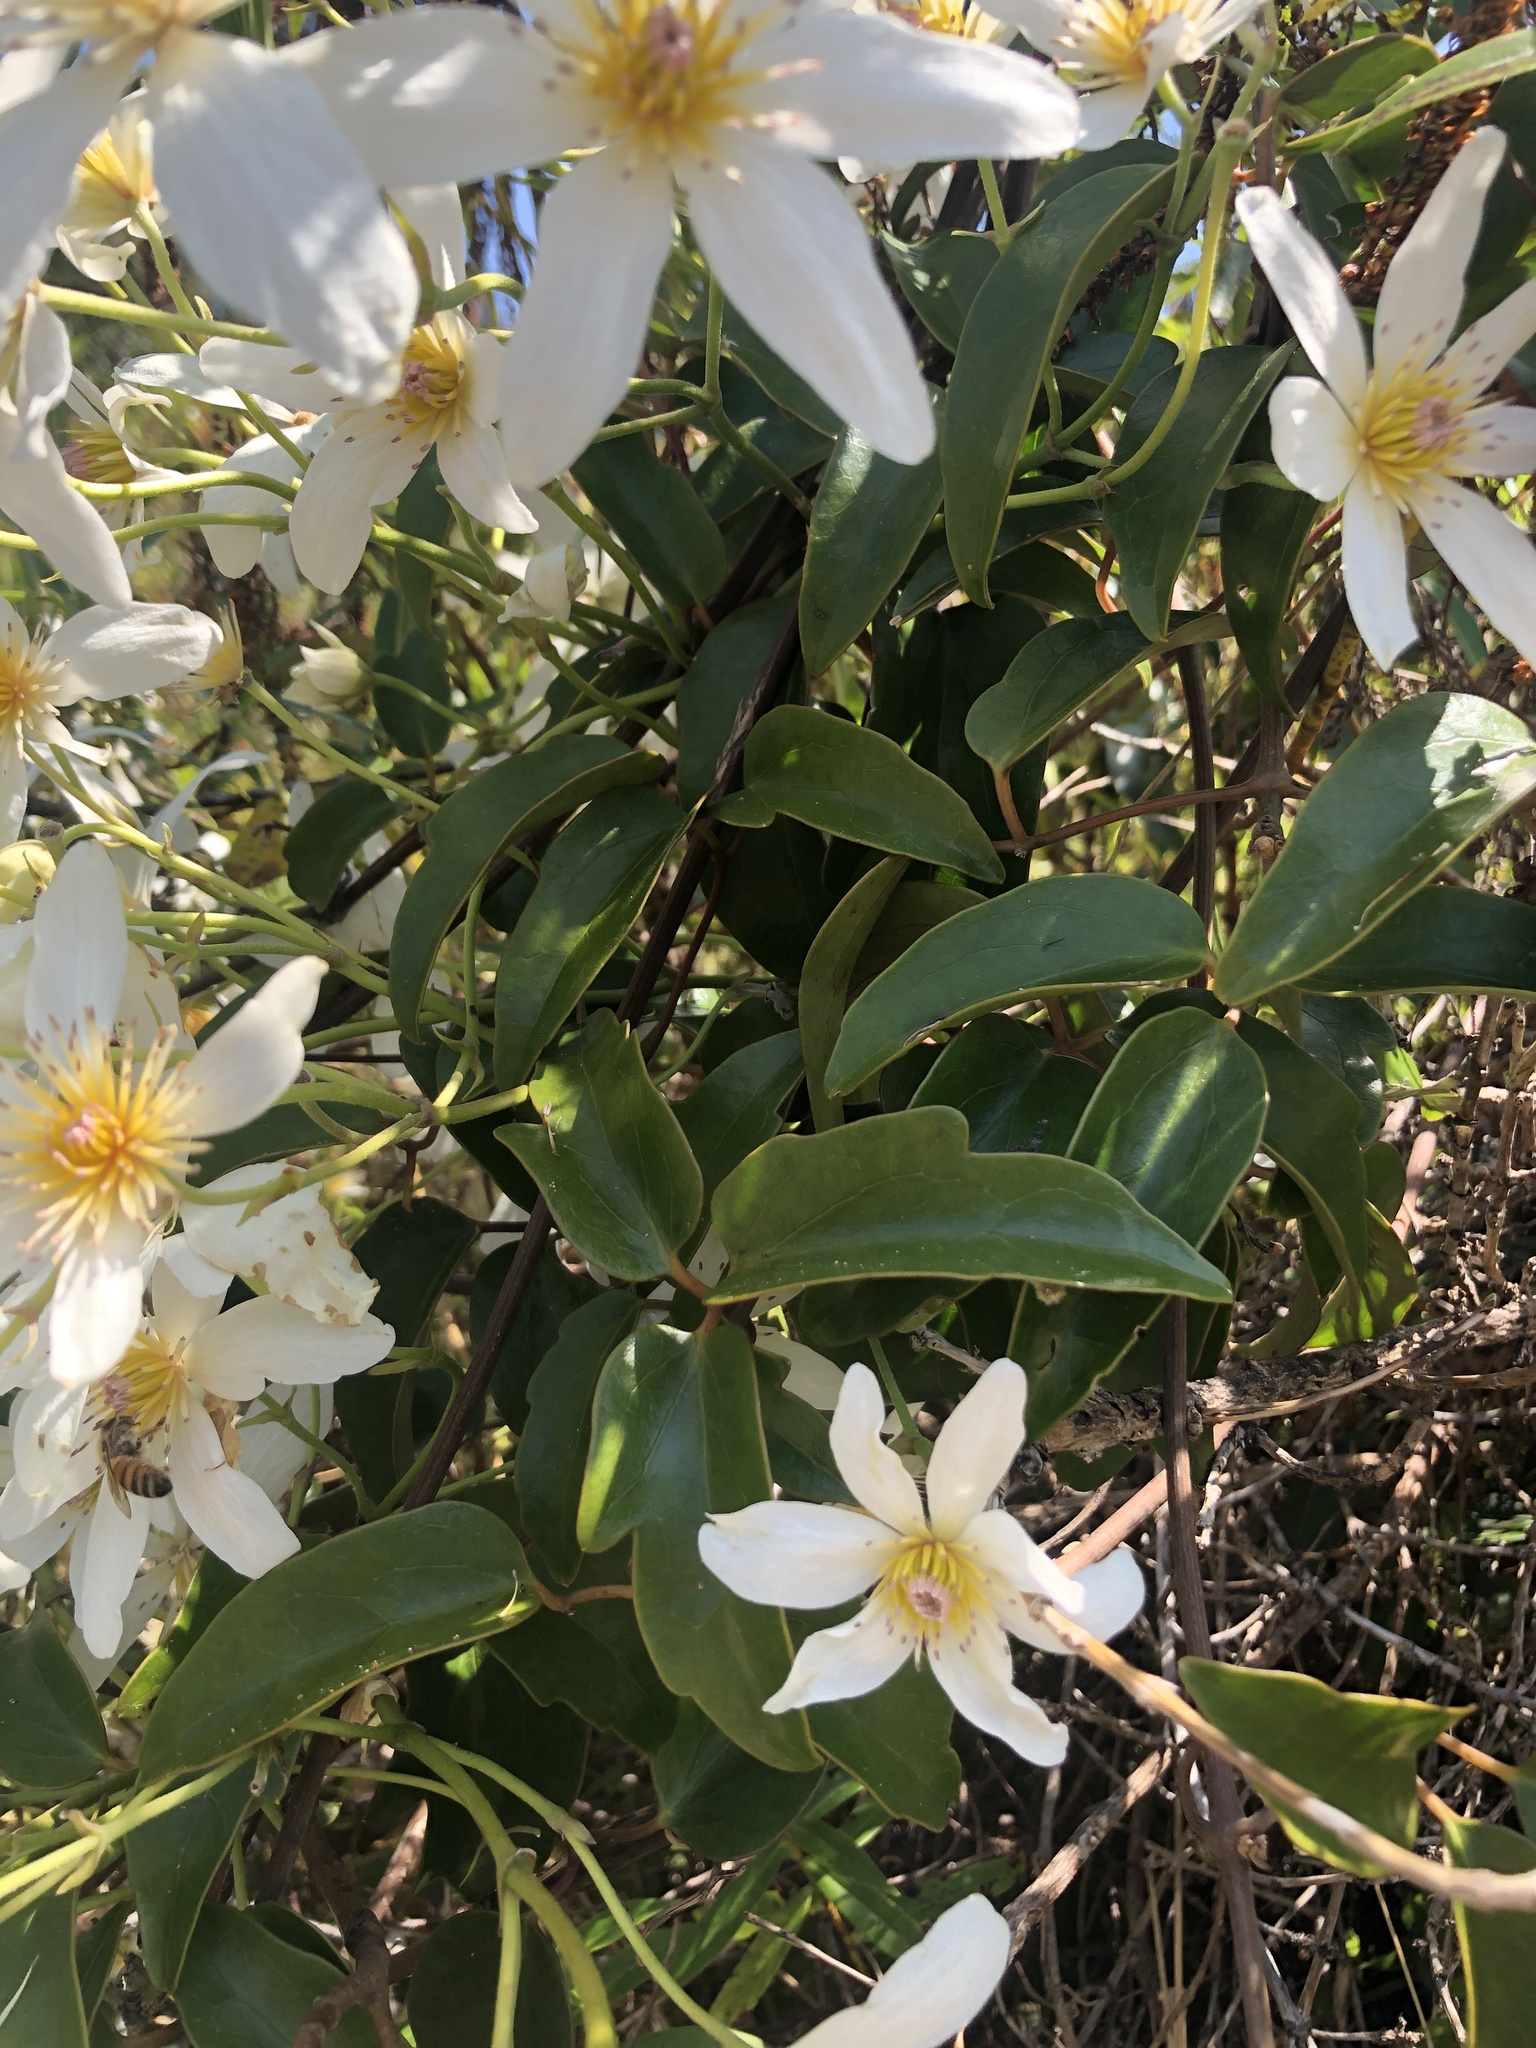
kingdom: Plantae
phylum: Tracheophyta
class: Magnoliopsida
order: Ranunculales
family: Ranunculaceae
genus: Clematis
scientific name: Clematis paniculata
